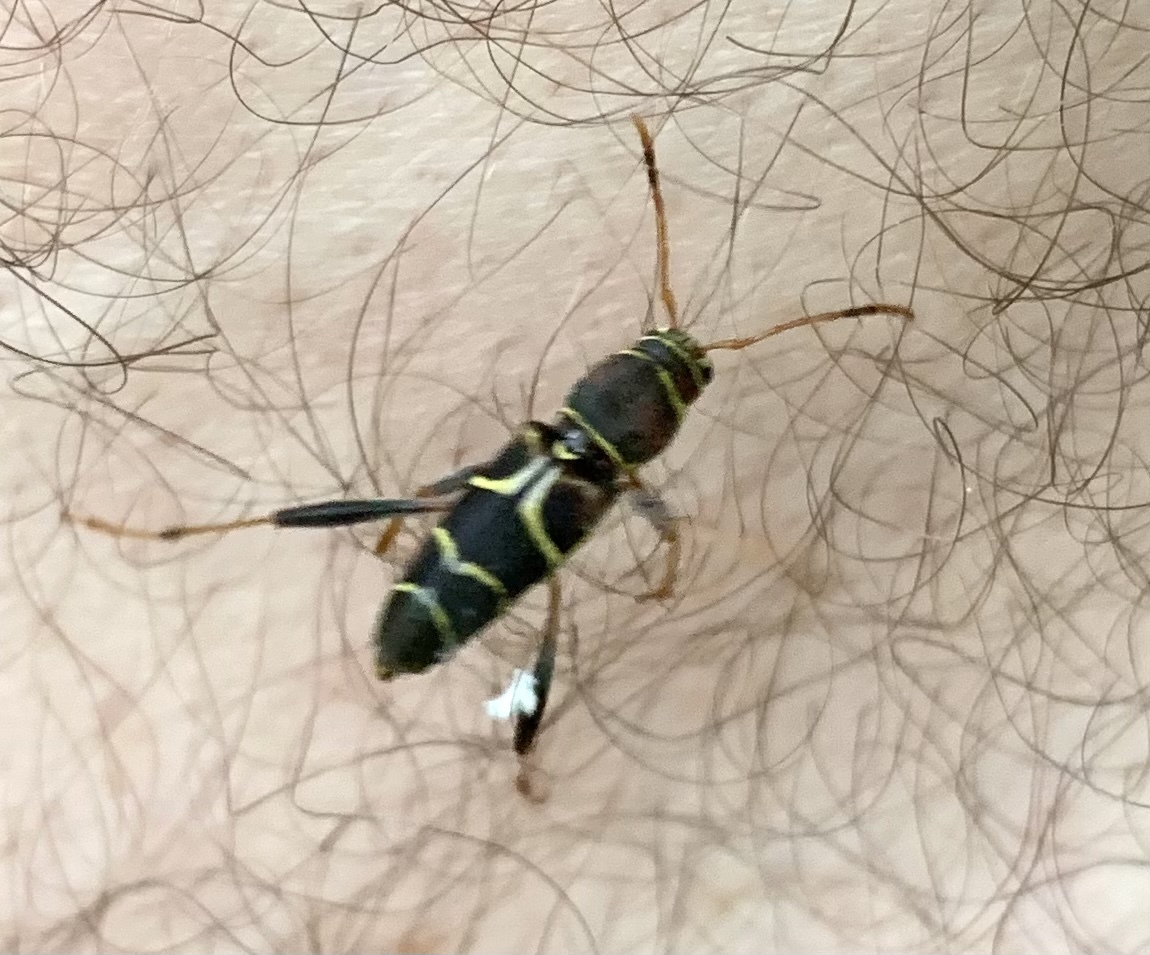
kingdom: Animalia
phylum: Arthropoda
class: Insecta
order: Coleoptera
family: Cerambycidae
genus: Neoclytus
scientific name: Neoclytus mucronatus
